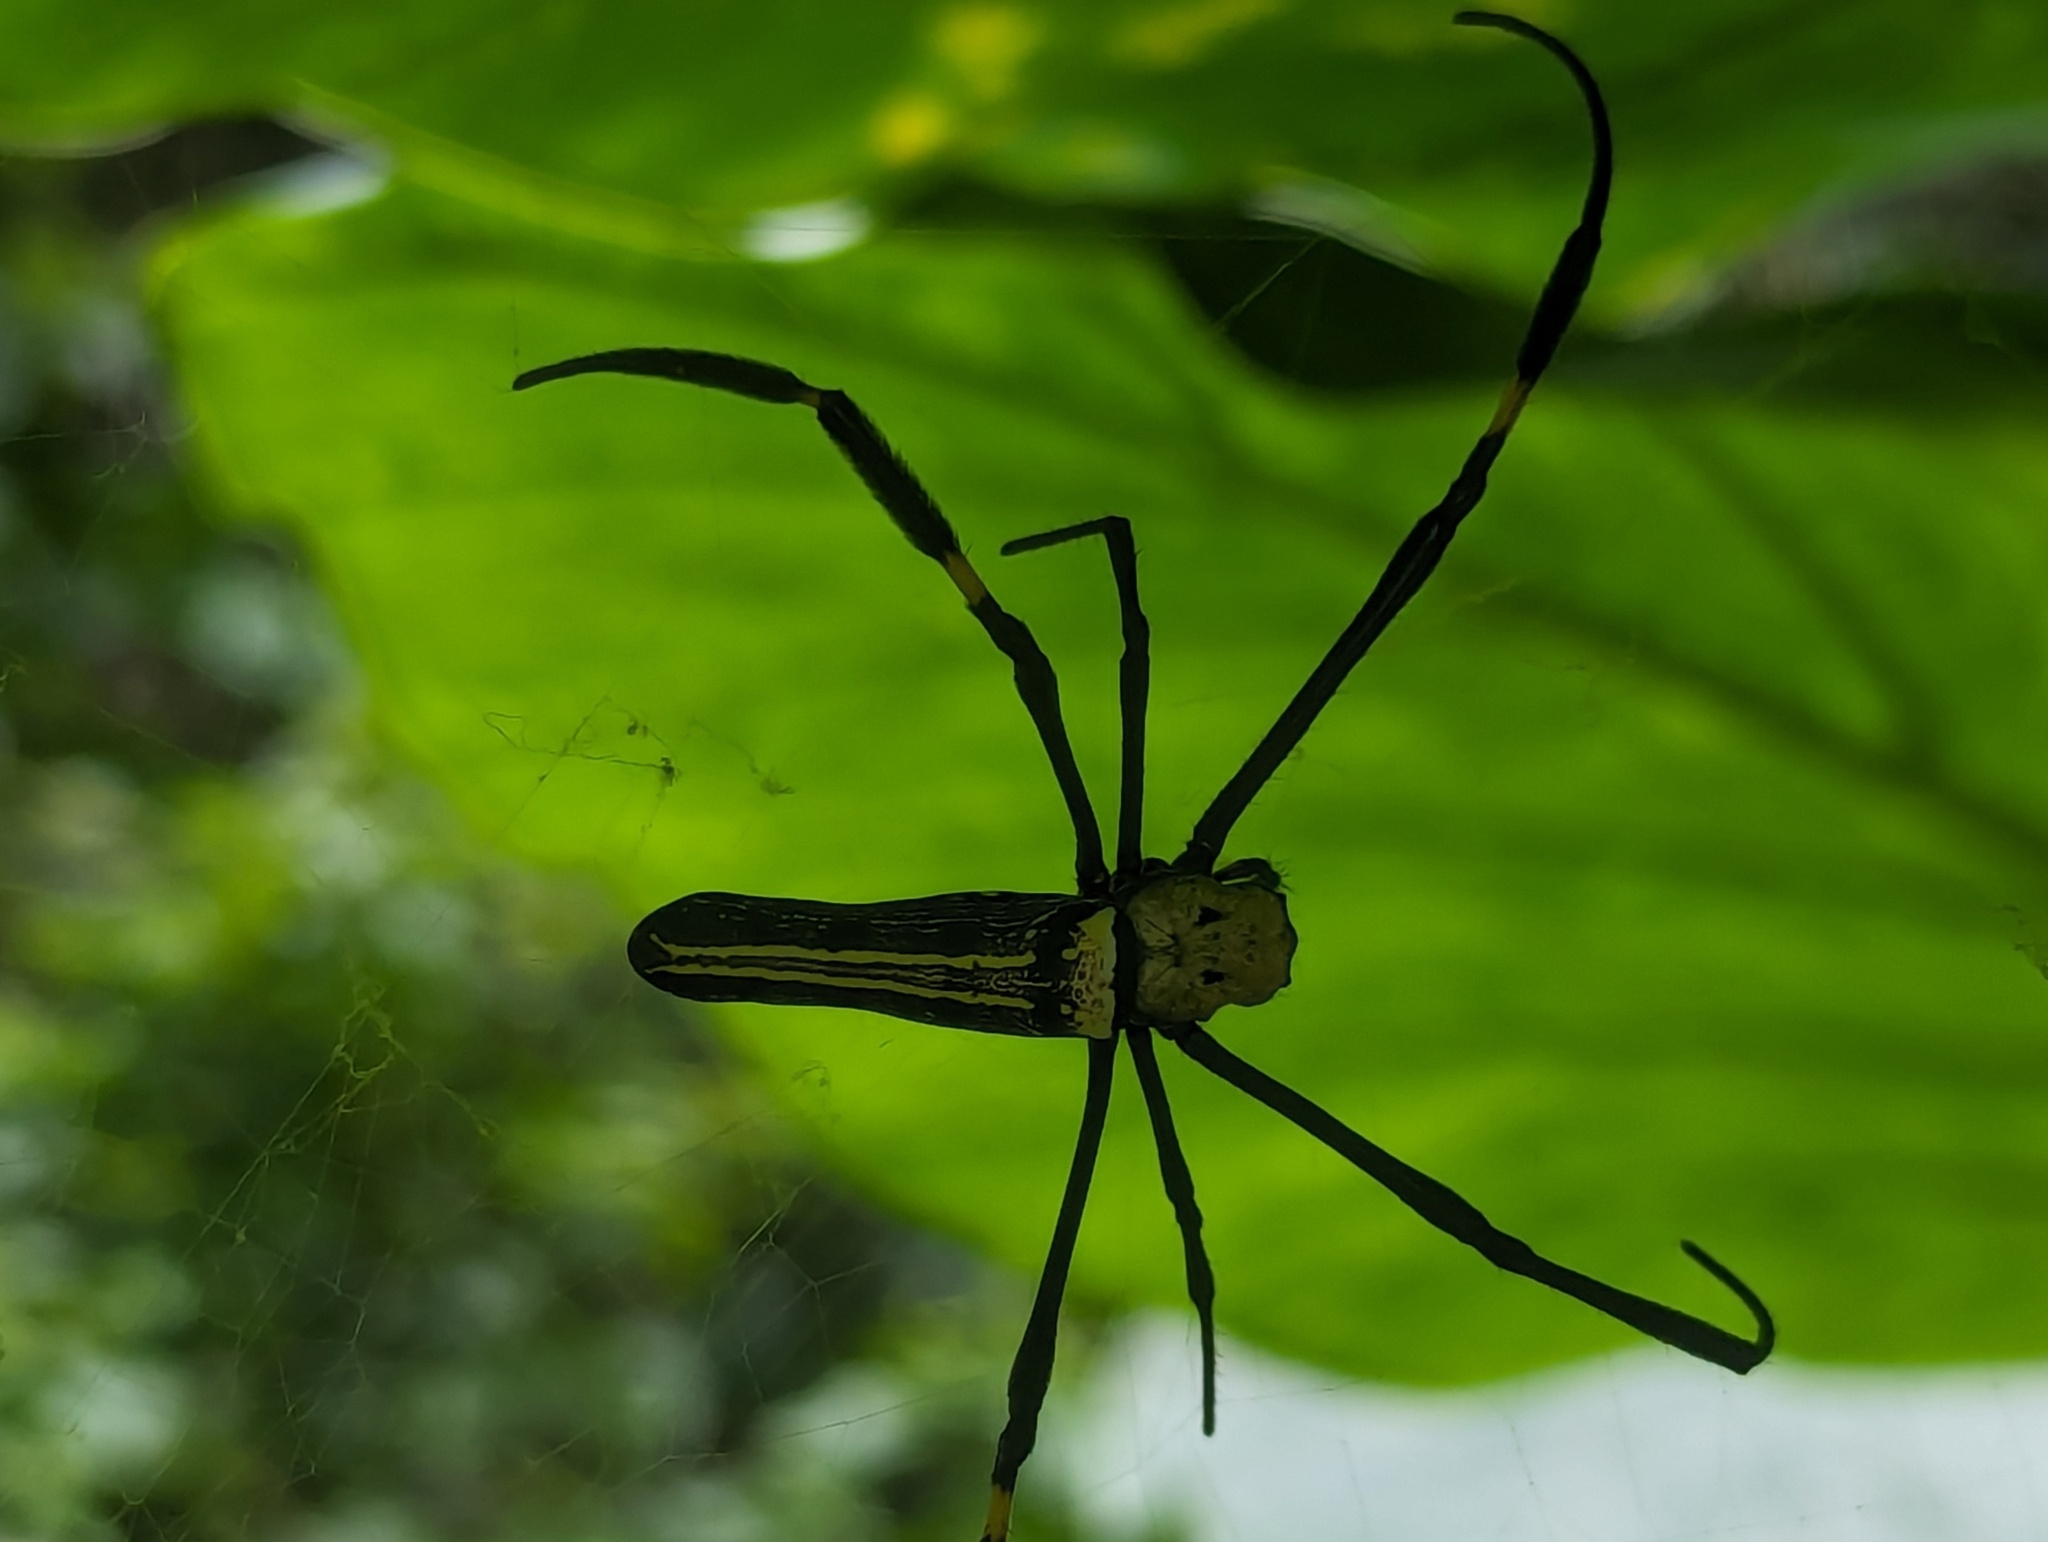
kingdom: Animalia
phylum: Arthropoda
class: Arachnida
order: Araneae
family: Araneidae
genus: Nephila
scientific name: Nephila pilipes
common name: Giant golden orb weaver
